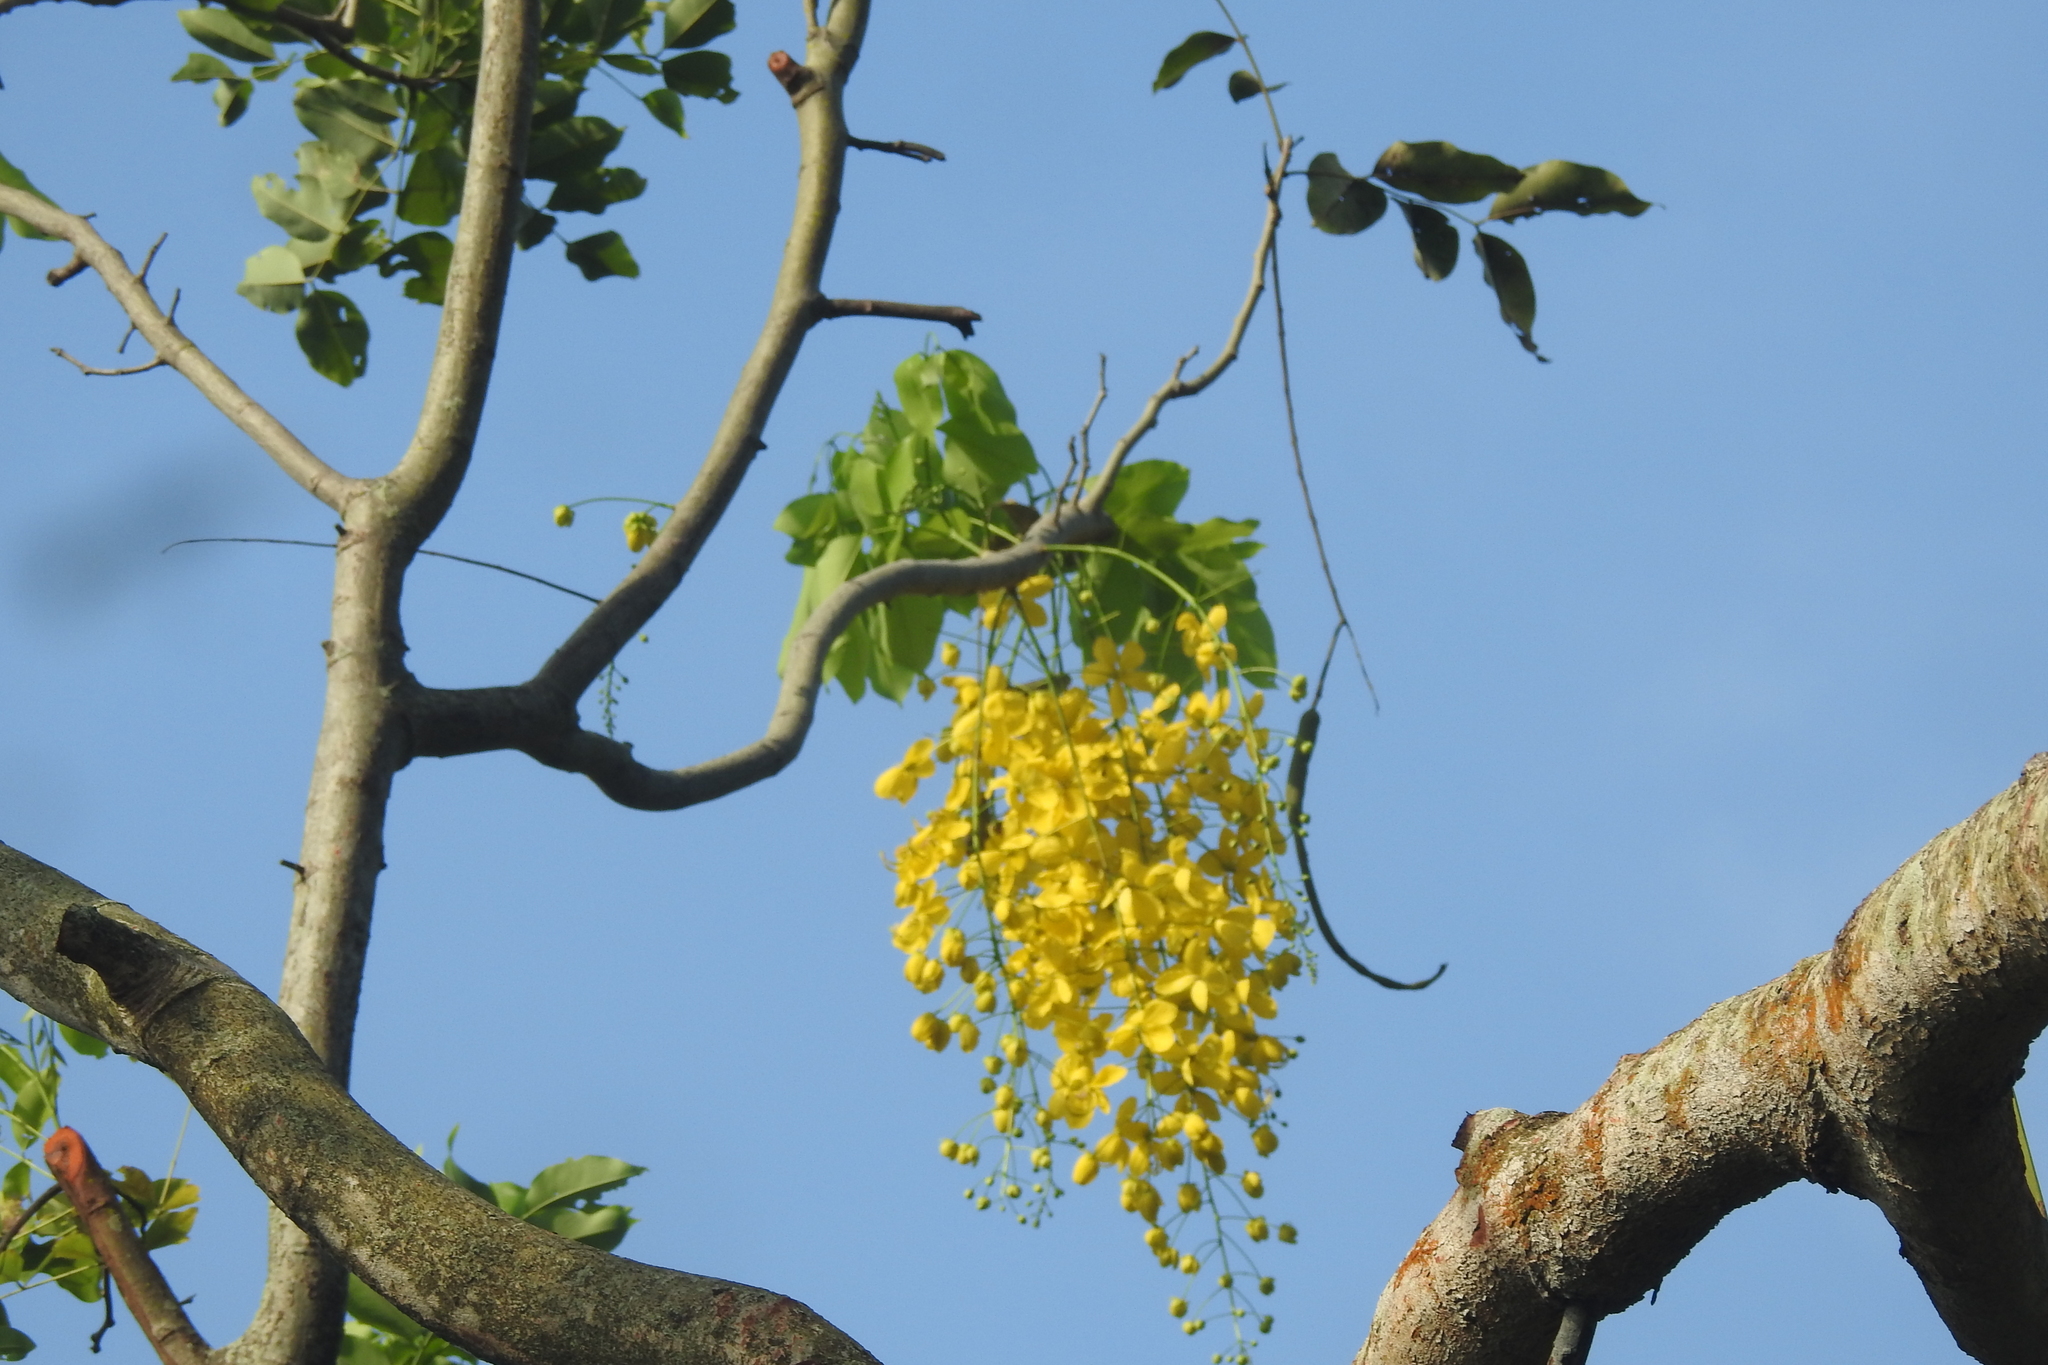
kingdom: Plantae
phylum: Tracheophyta
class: Magnoliopsida
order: Fabales
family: Fabaceae
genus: Cassia
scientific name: Cassia fistula
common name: Golden shower
